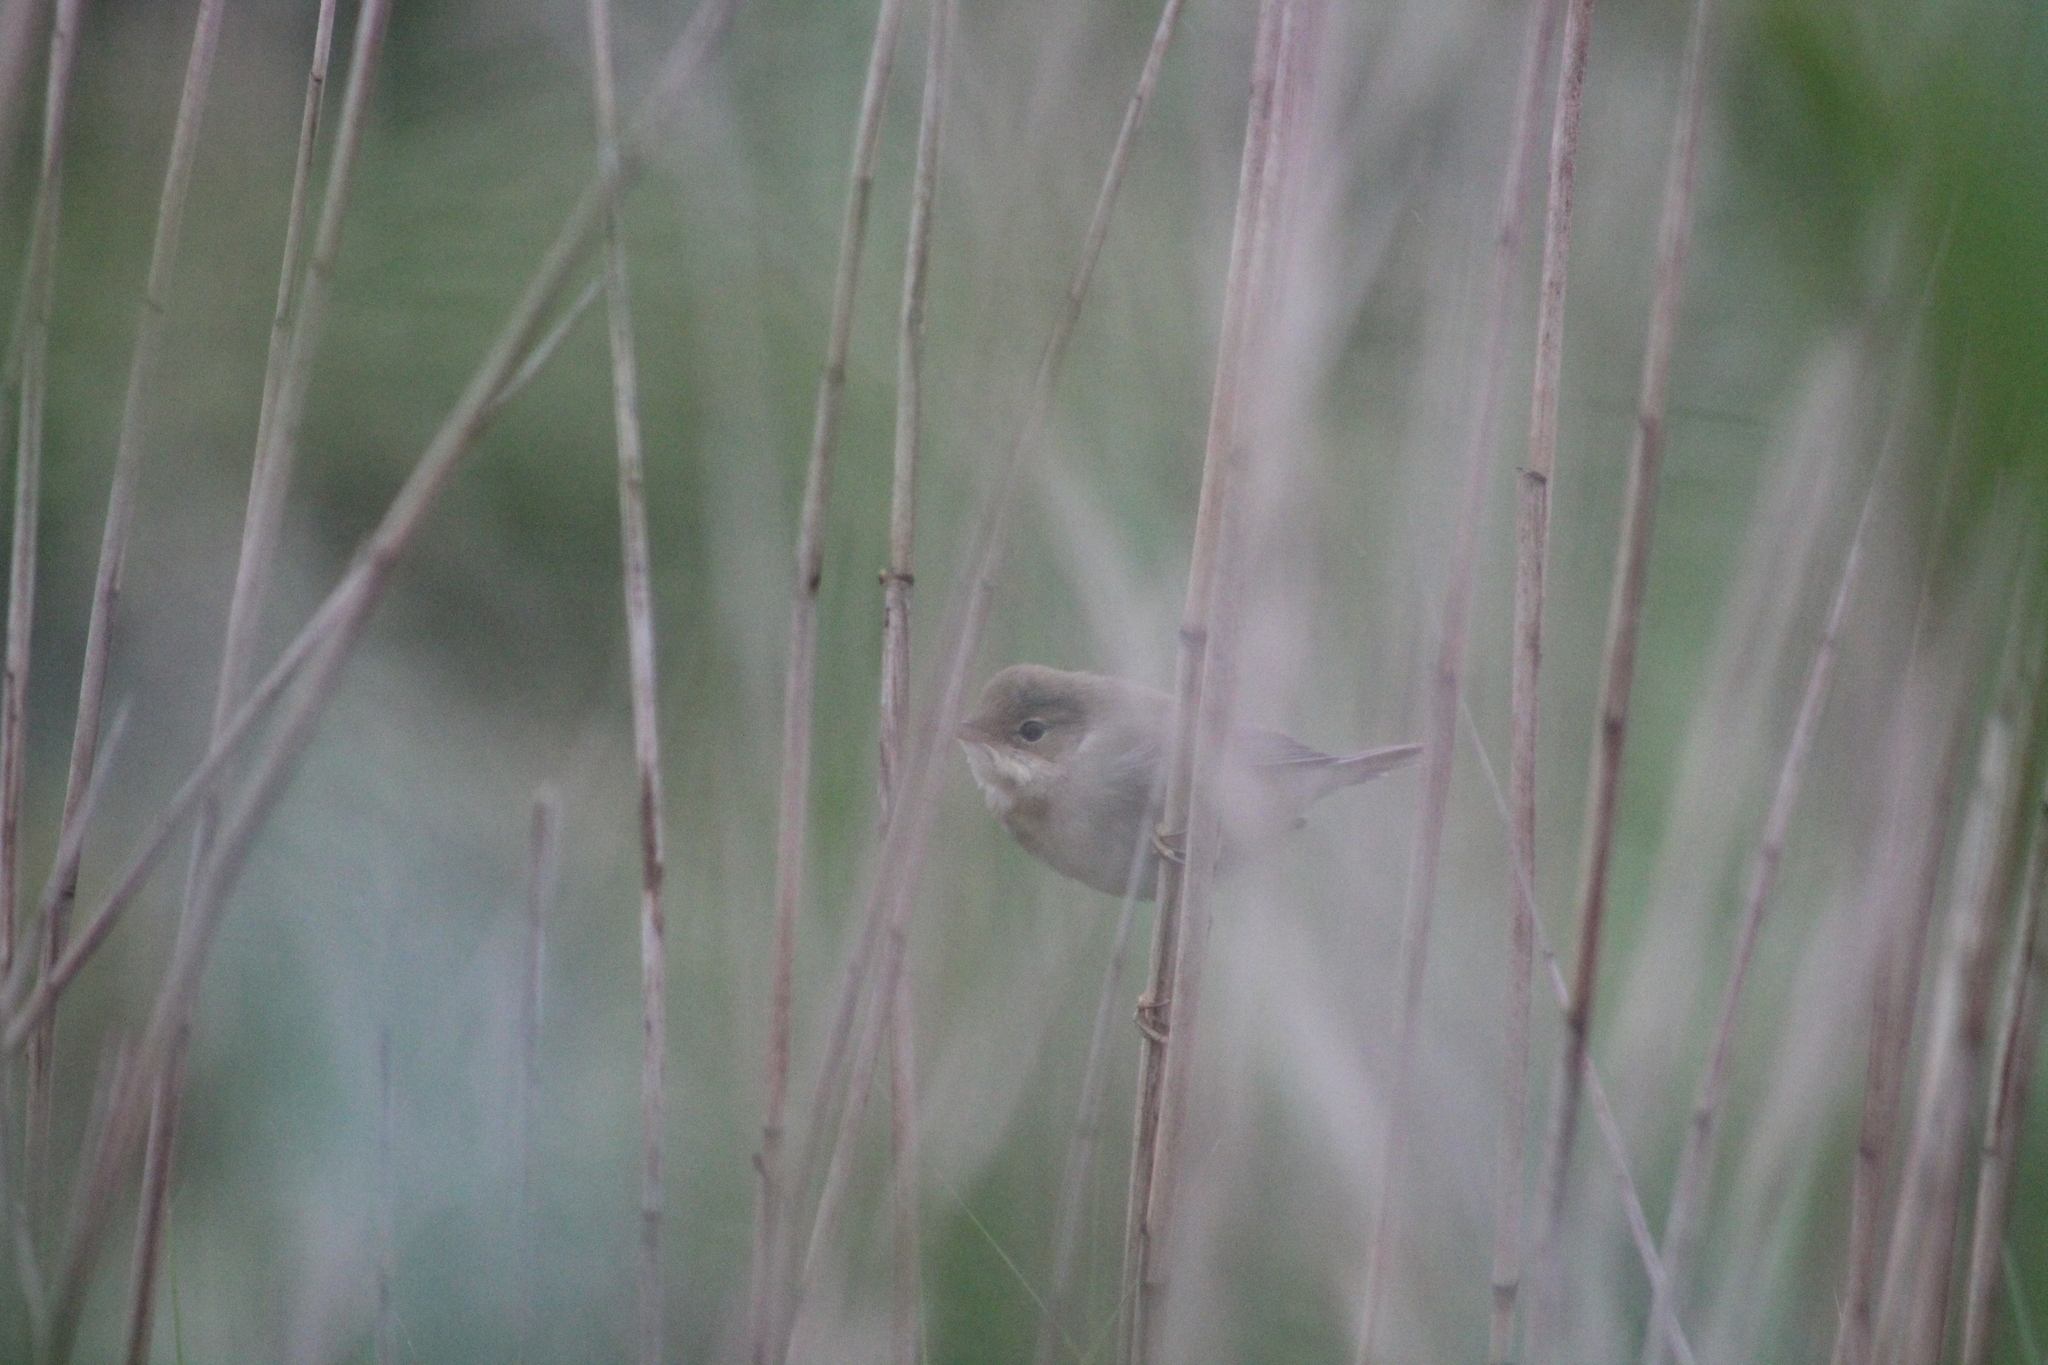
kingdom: Animalia
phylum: Chordata
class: Aves
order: Passeriformes
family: Acrocephalidae
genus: Acrocephalus
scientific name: Acrocephalus scirpaceus
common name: Eurasian reed warbler
